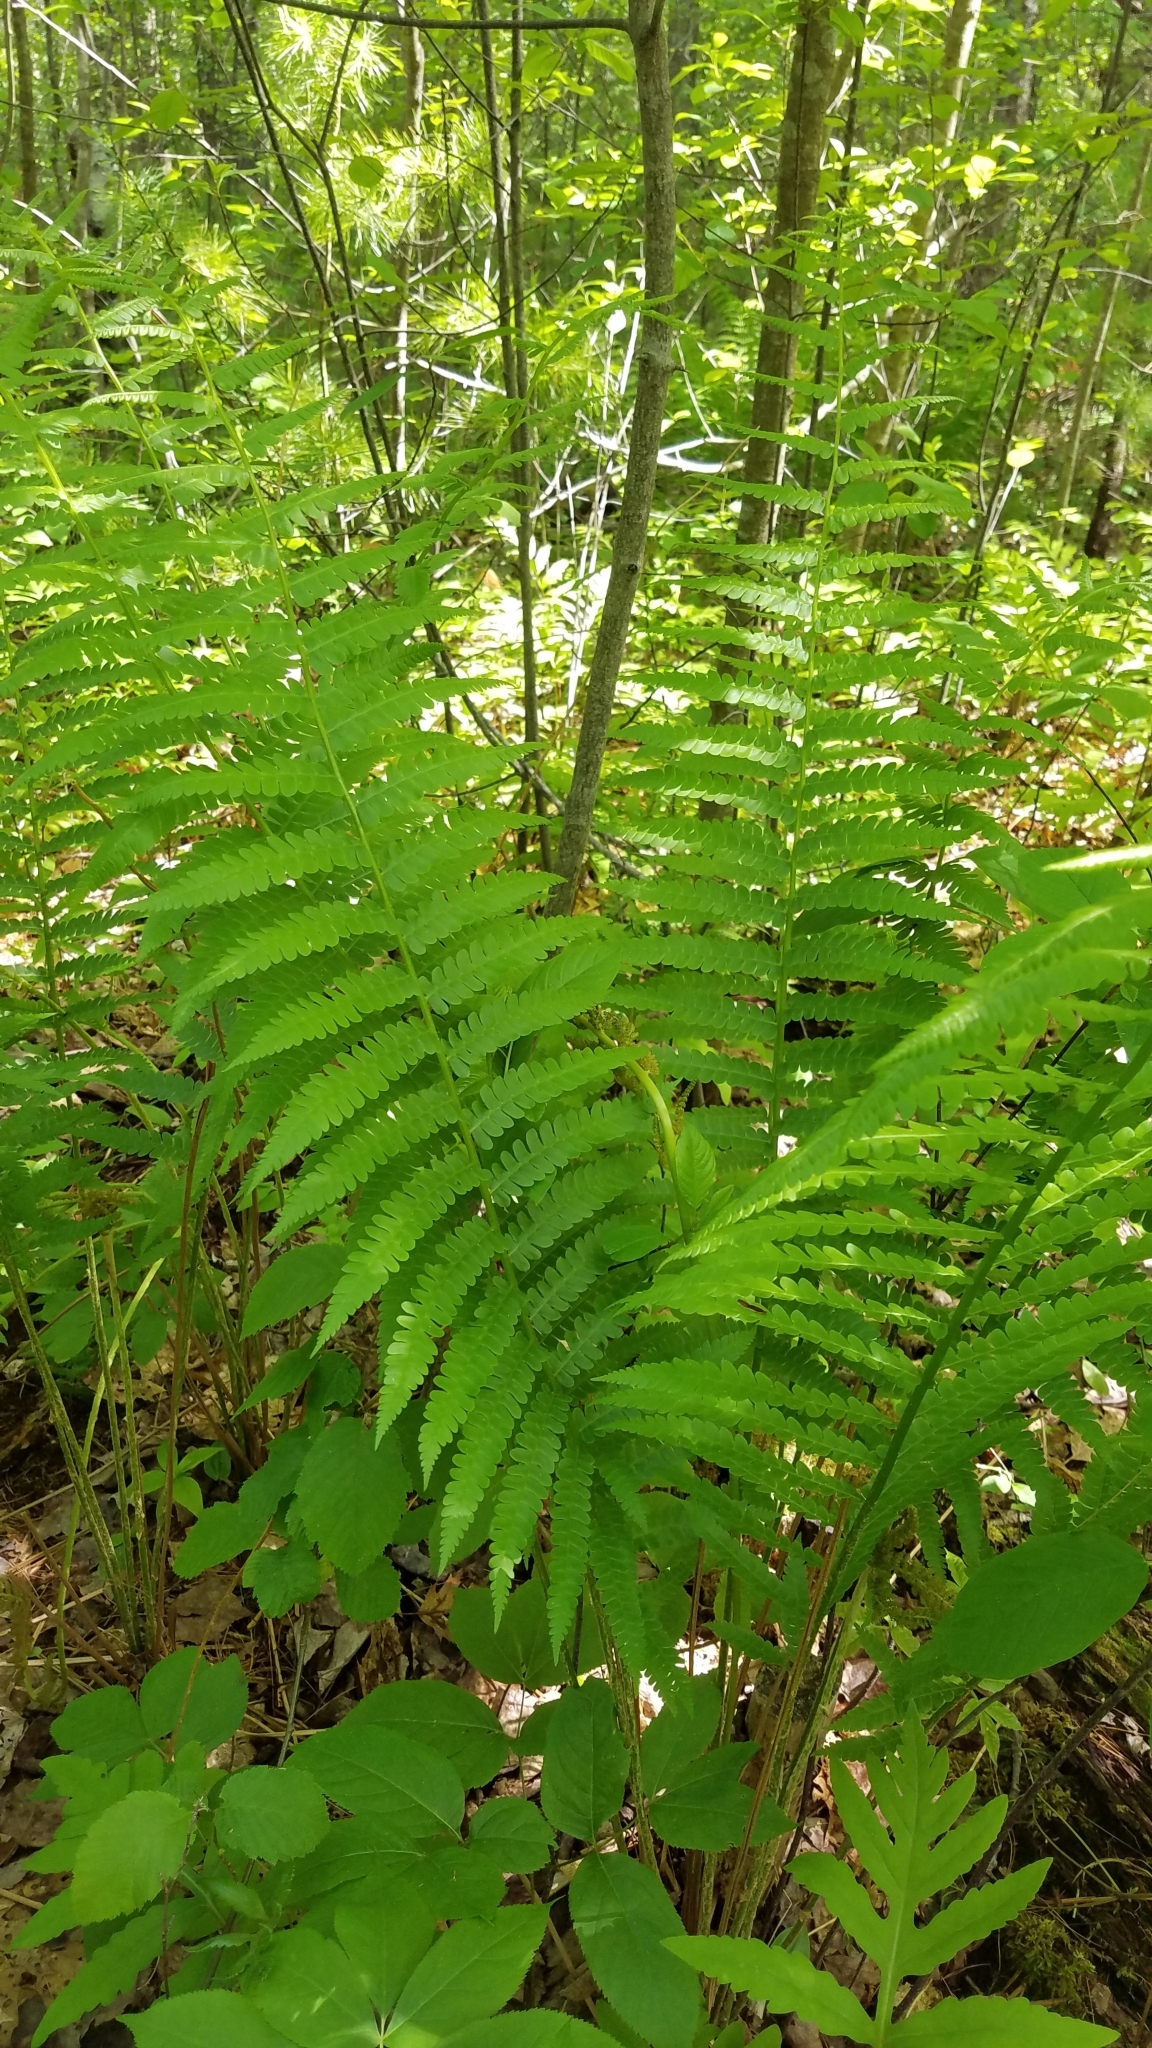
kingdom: Plantae
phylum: Tracheophyta
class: Polypodiopsida
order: Osmundales
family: Osmundaceae
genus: Osmundastrum
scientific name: Osmundastrum cinnamomeum
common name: Cinnamon fern
